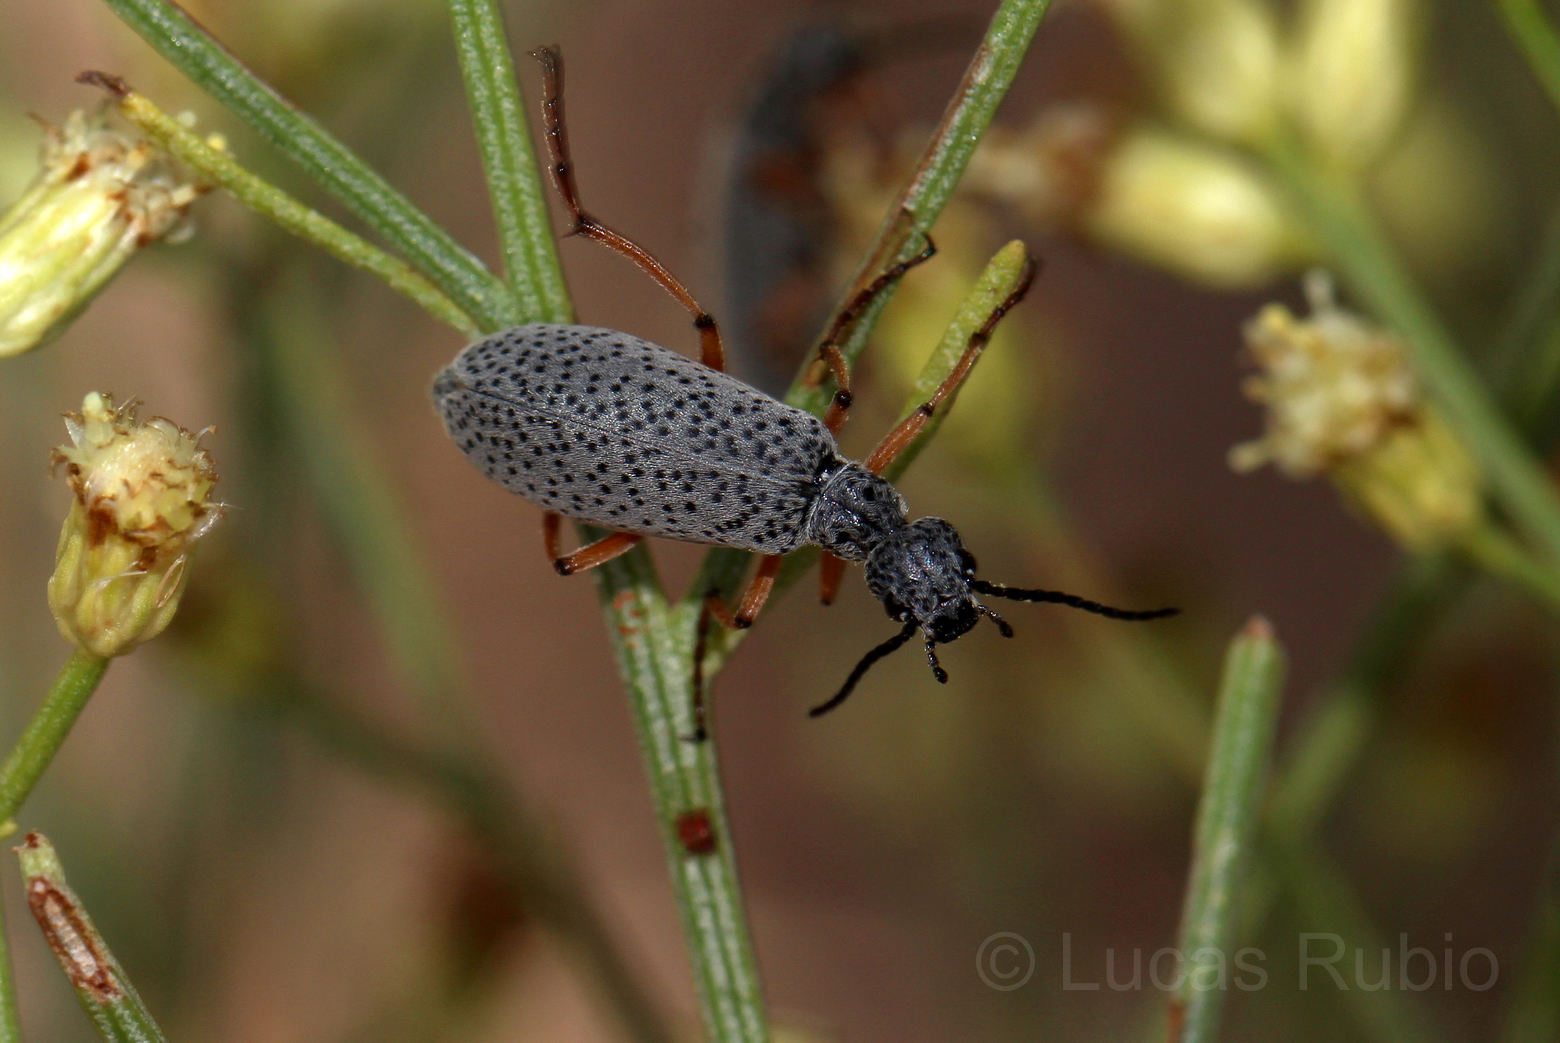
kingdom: Animalia
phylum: Arthropoda
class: Insecta
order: Coleoptera
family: Meloidae
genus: Epicauta
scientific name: Epicauta
